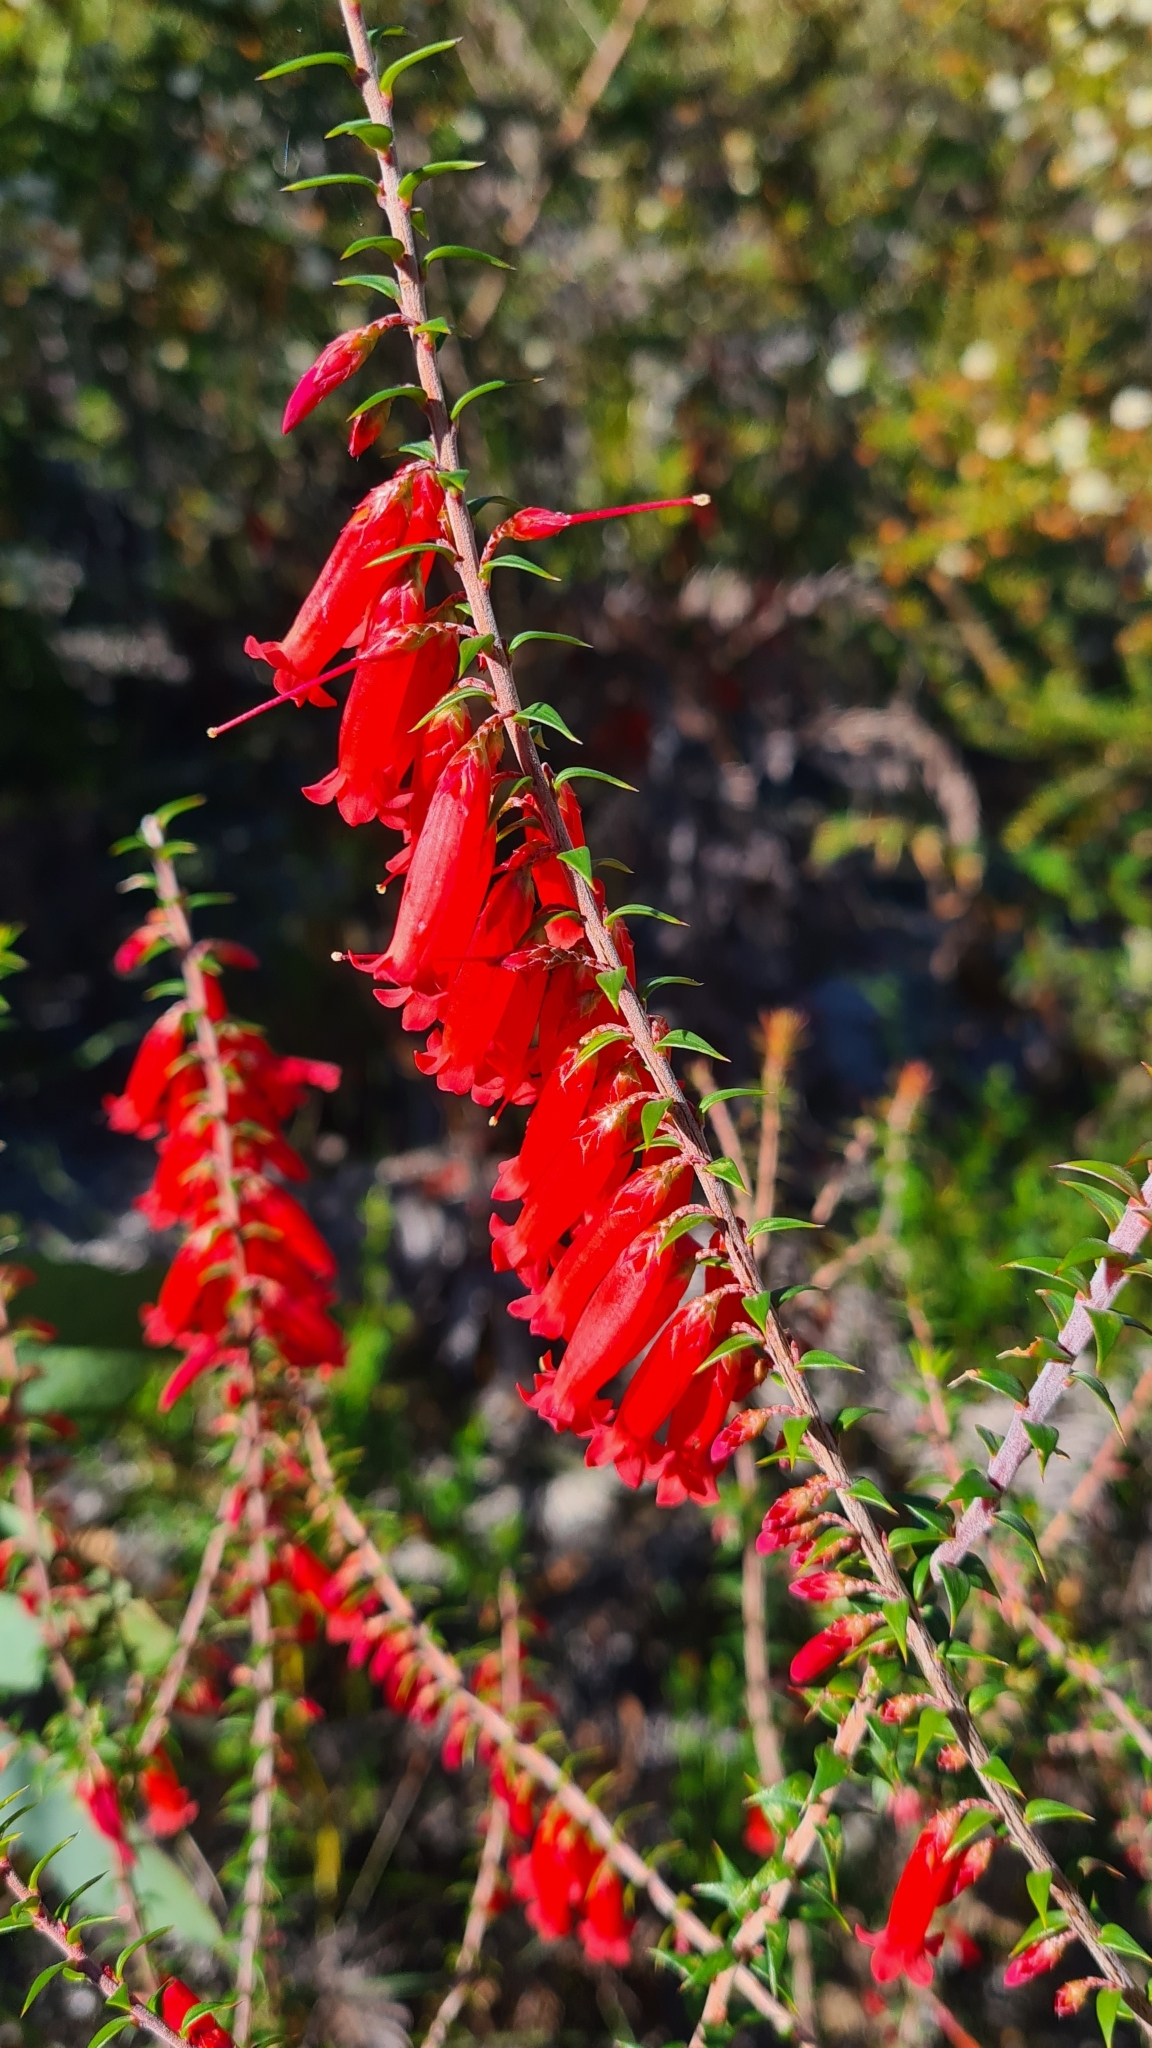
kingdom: Plantae
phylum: Tracheophyta
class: Magnoliopsida
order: Ericales
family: Ericaceae
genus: Epacris
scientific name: Epacris impressa
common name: Common-heath
